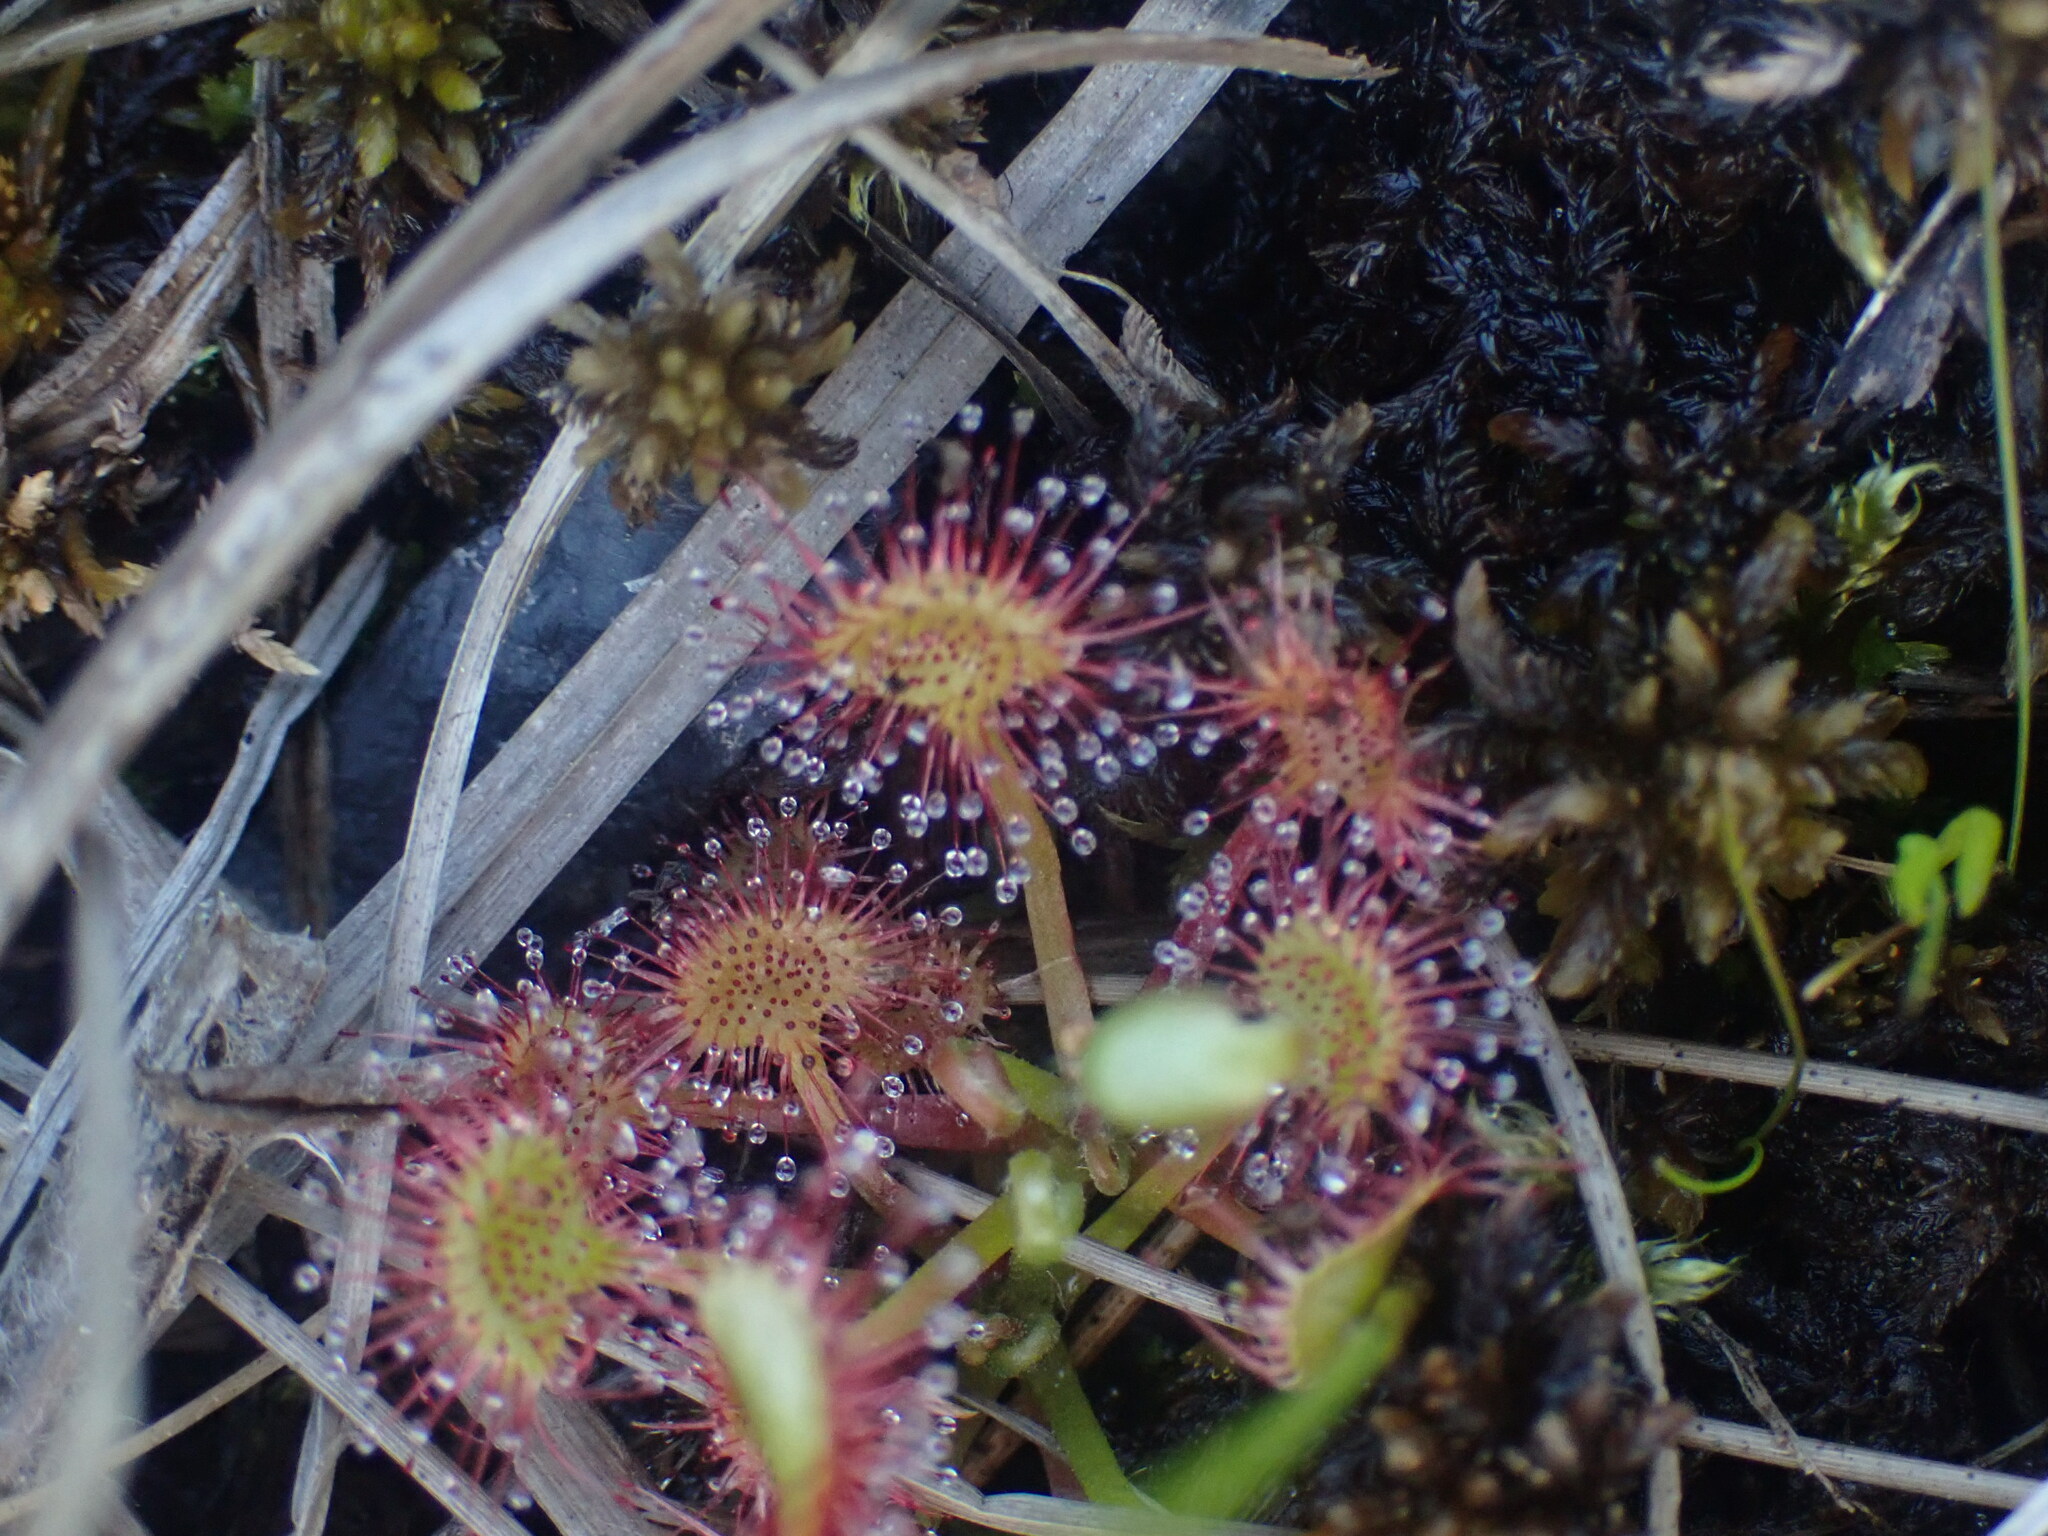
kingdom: Plantae
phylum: Tracheophyta
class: Magnoliopsida
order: Caryophyllales
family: Droseraceae
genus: Drosera
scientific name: Drosera rotundifolia
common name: Round-leaved sundew
